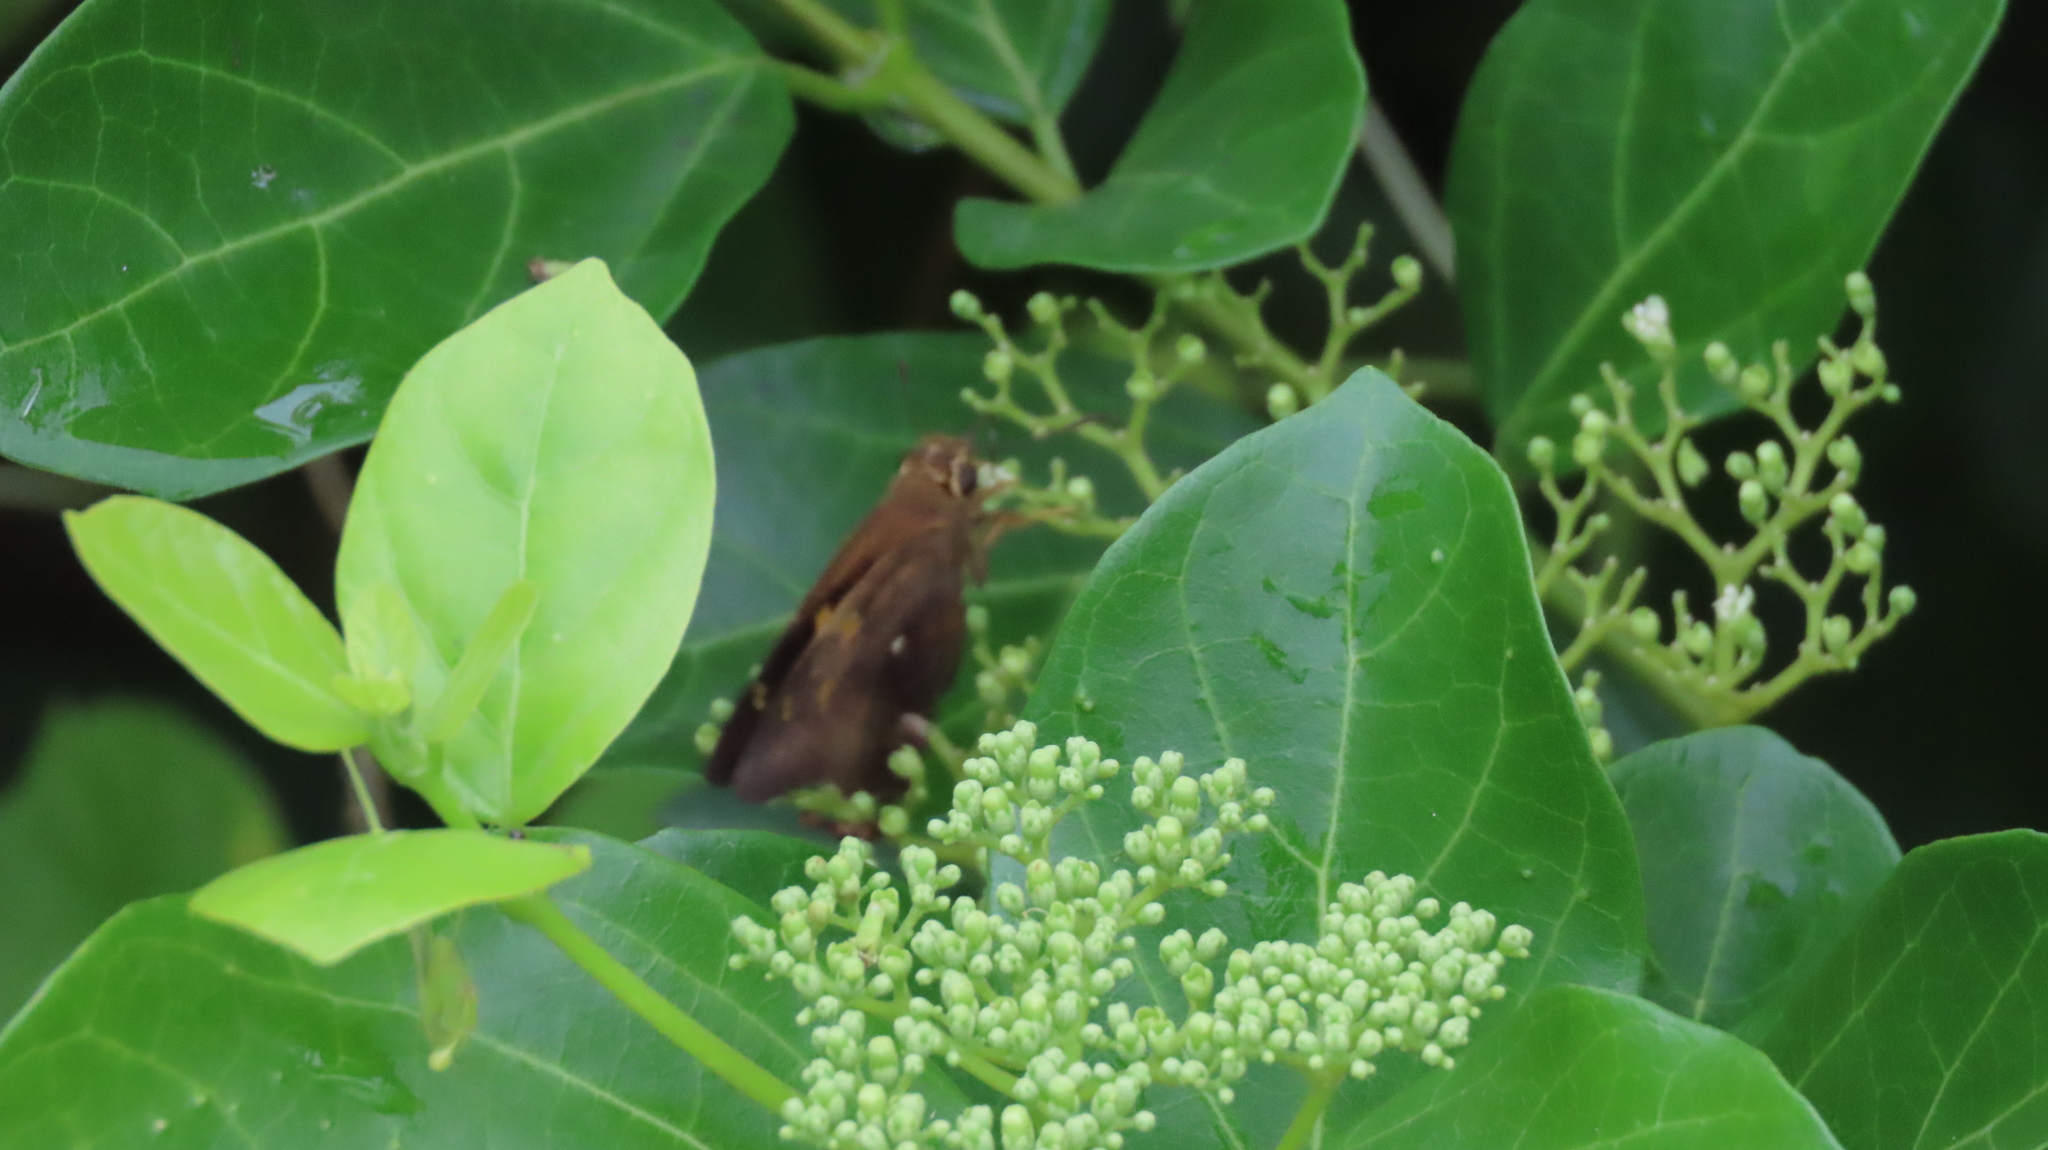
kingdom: Animalia
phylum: Arthropoda
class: Insecta
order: Lepidoptera
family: Hesperiidae
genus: Hasora
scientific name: Hasora badra
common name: Common awl
